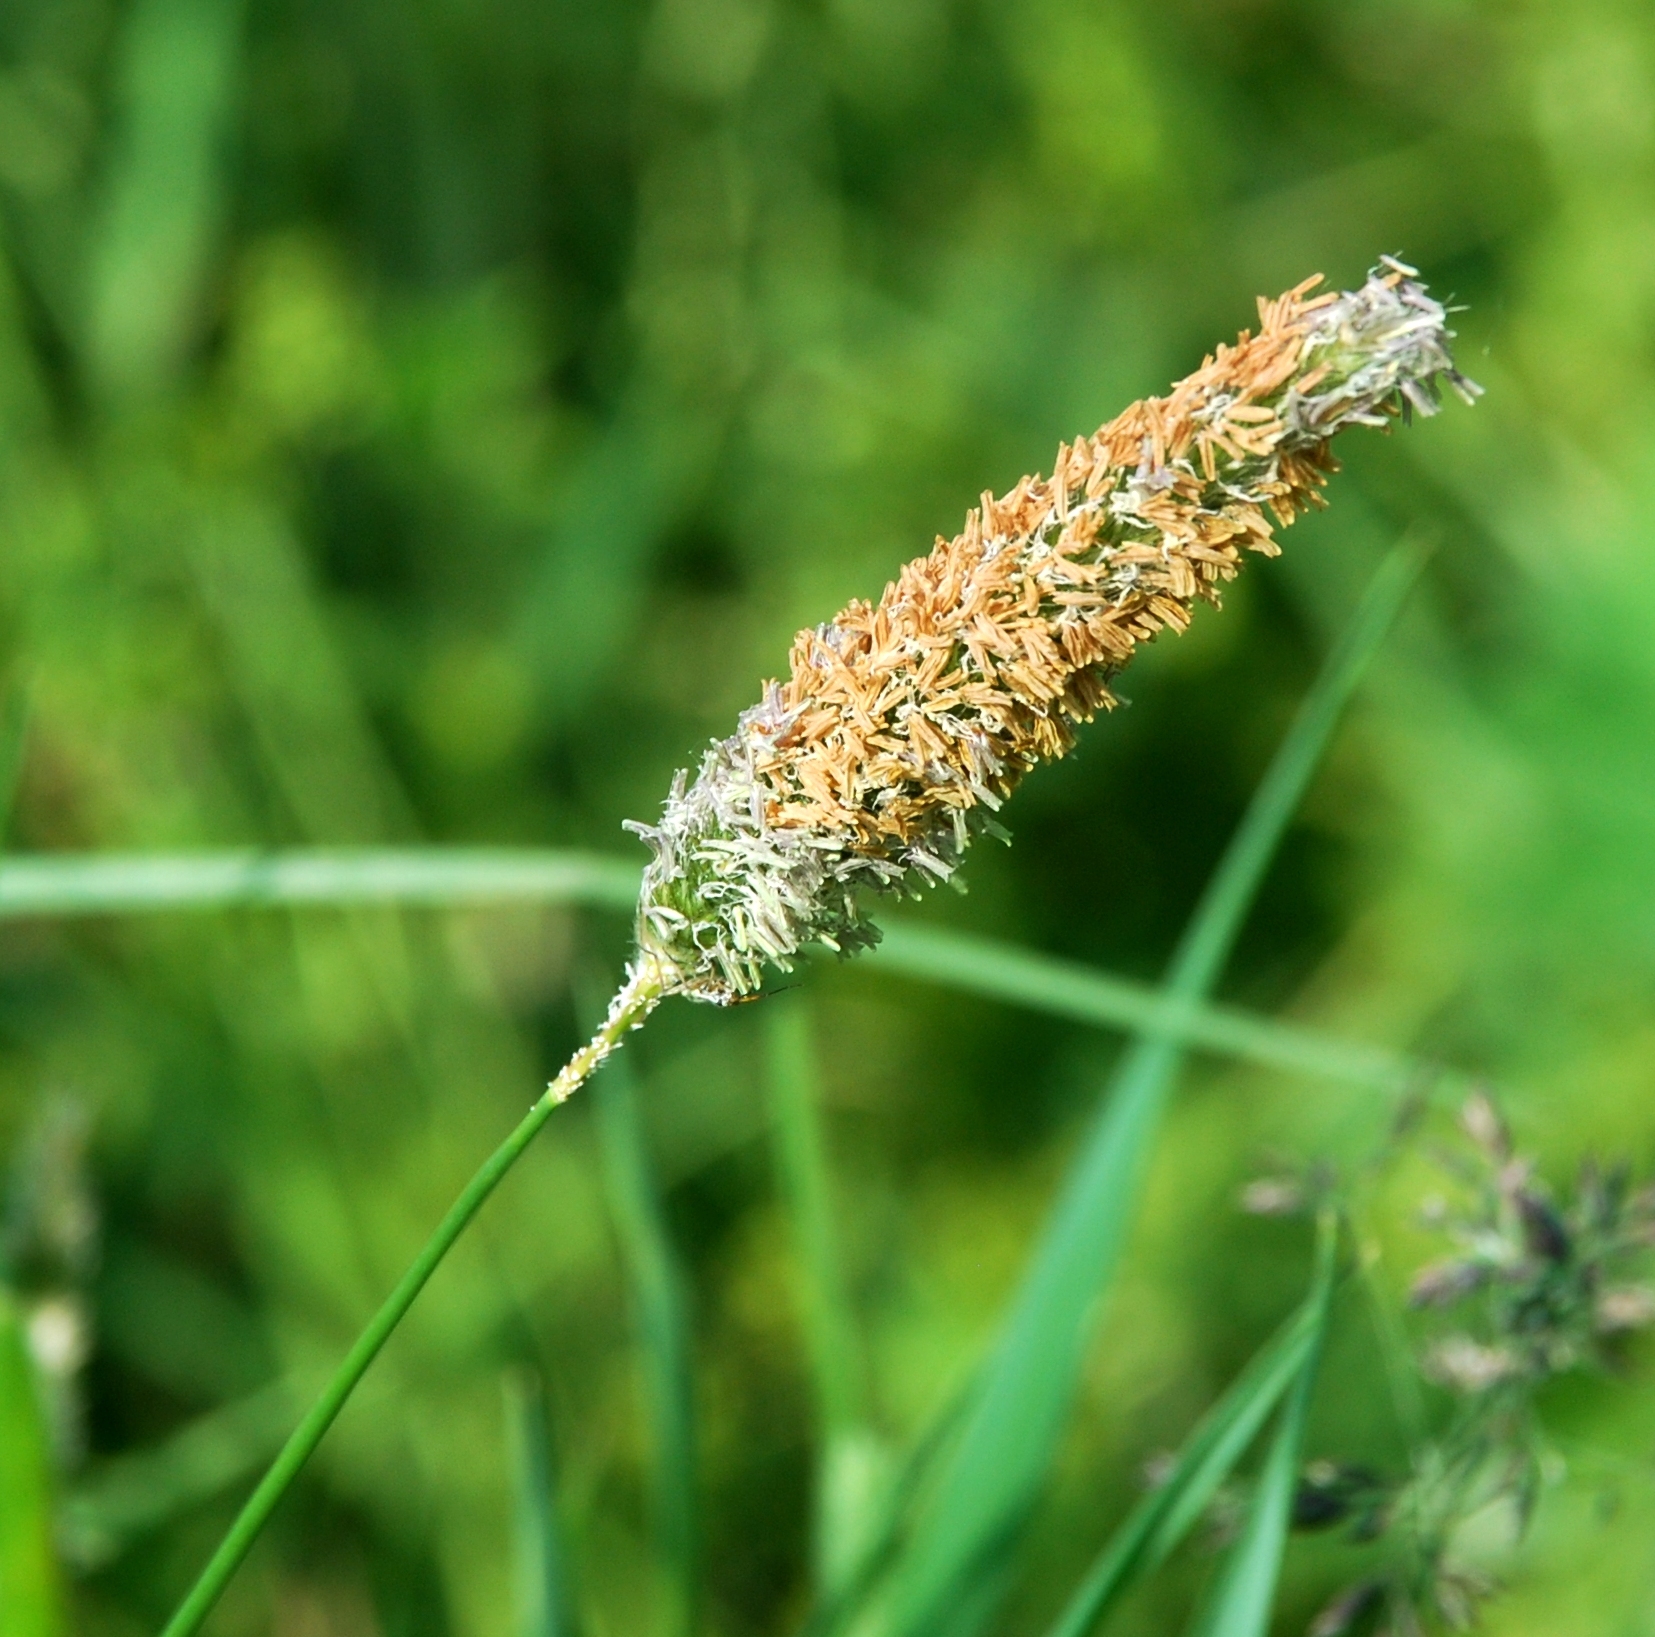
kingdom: Plantae
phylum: Tracheophyta
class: Liliopsida
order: Poales
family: Poaceae
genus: Alopecurus
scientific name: Alopecurus pratensis
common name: Meadow foxtail
